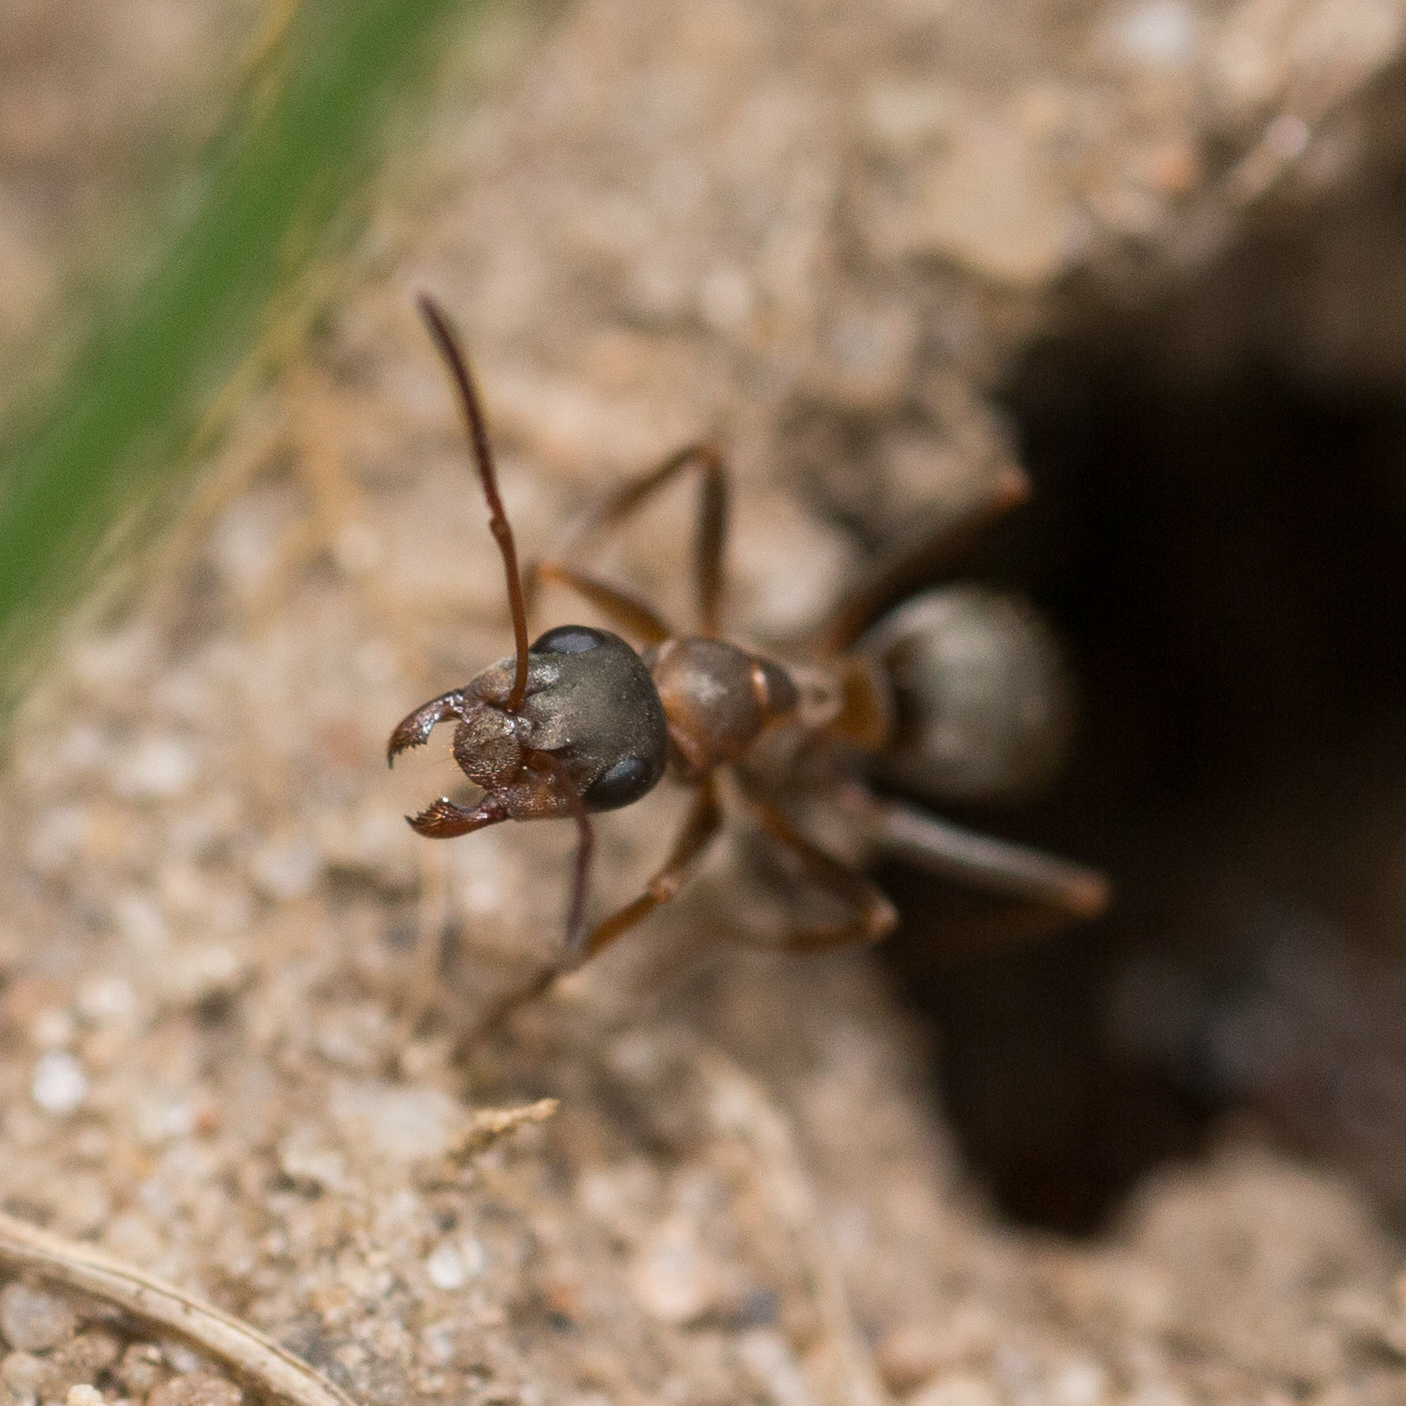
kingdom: Animalia
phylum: Arthropoda
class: Insecta
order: Hymenoptera
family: Formicidae
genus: Formica
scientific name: Formica cunicularia
